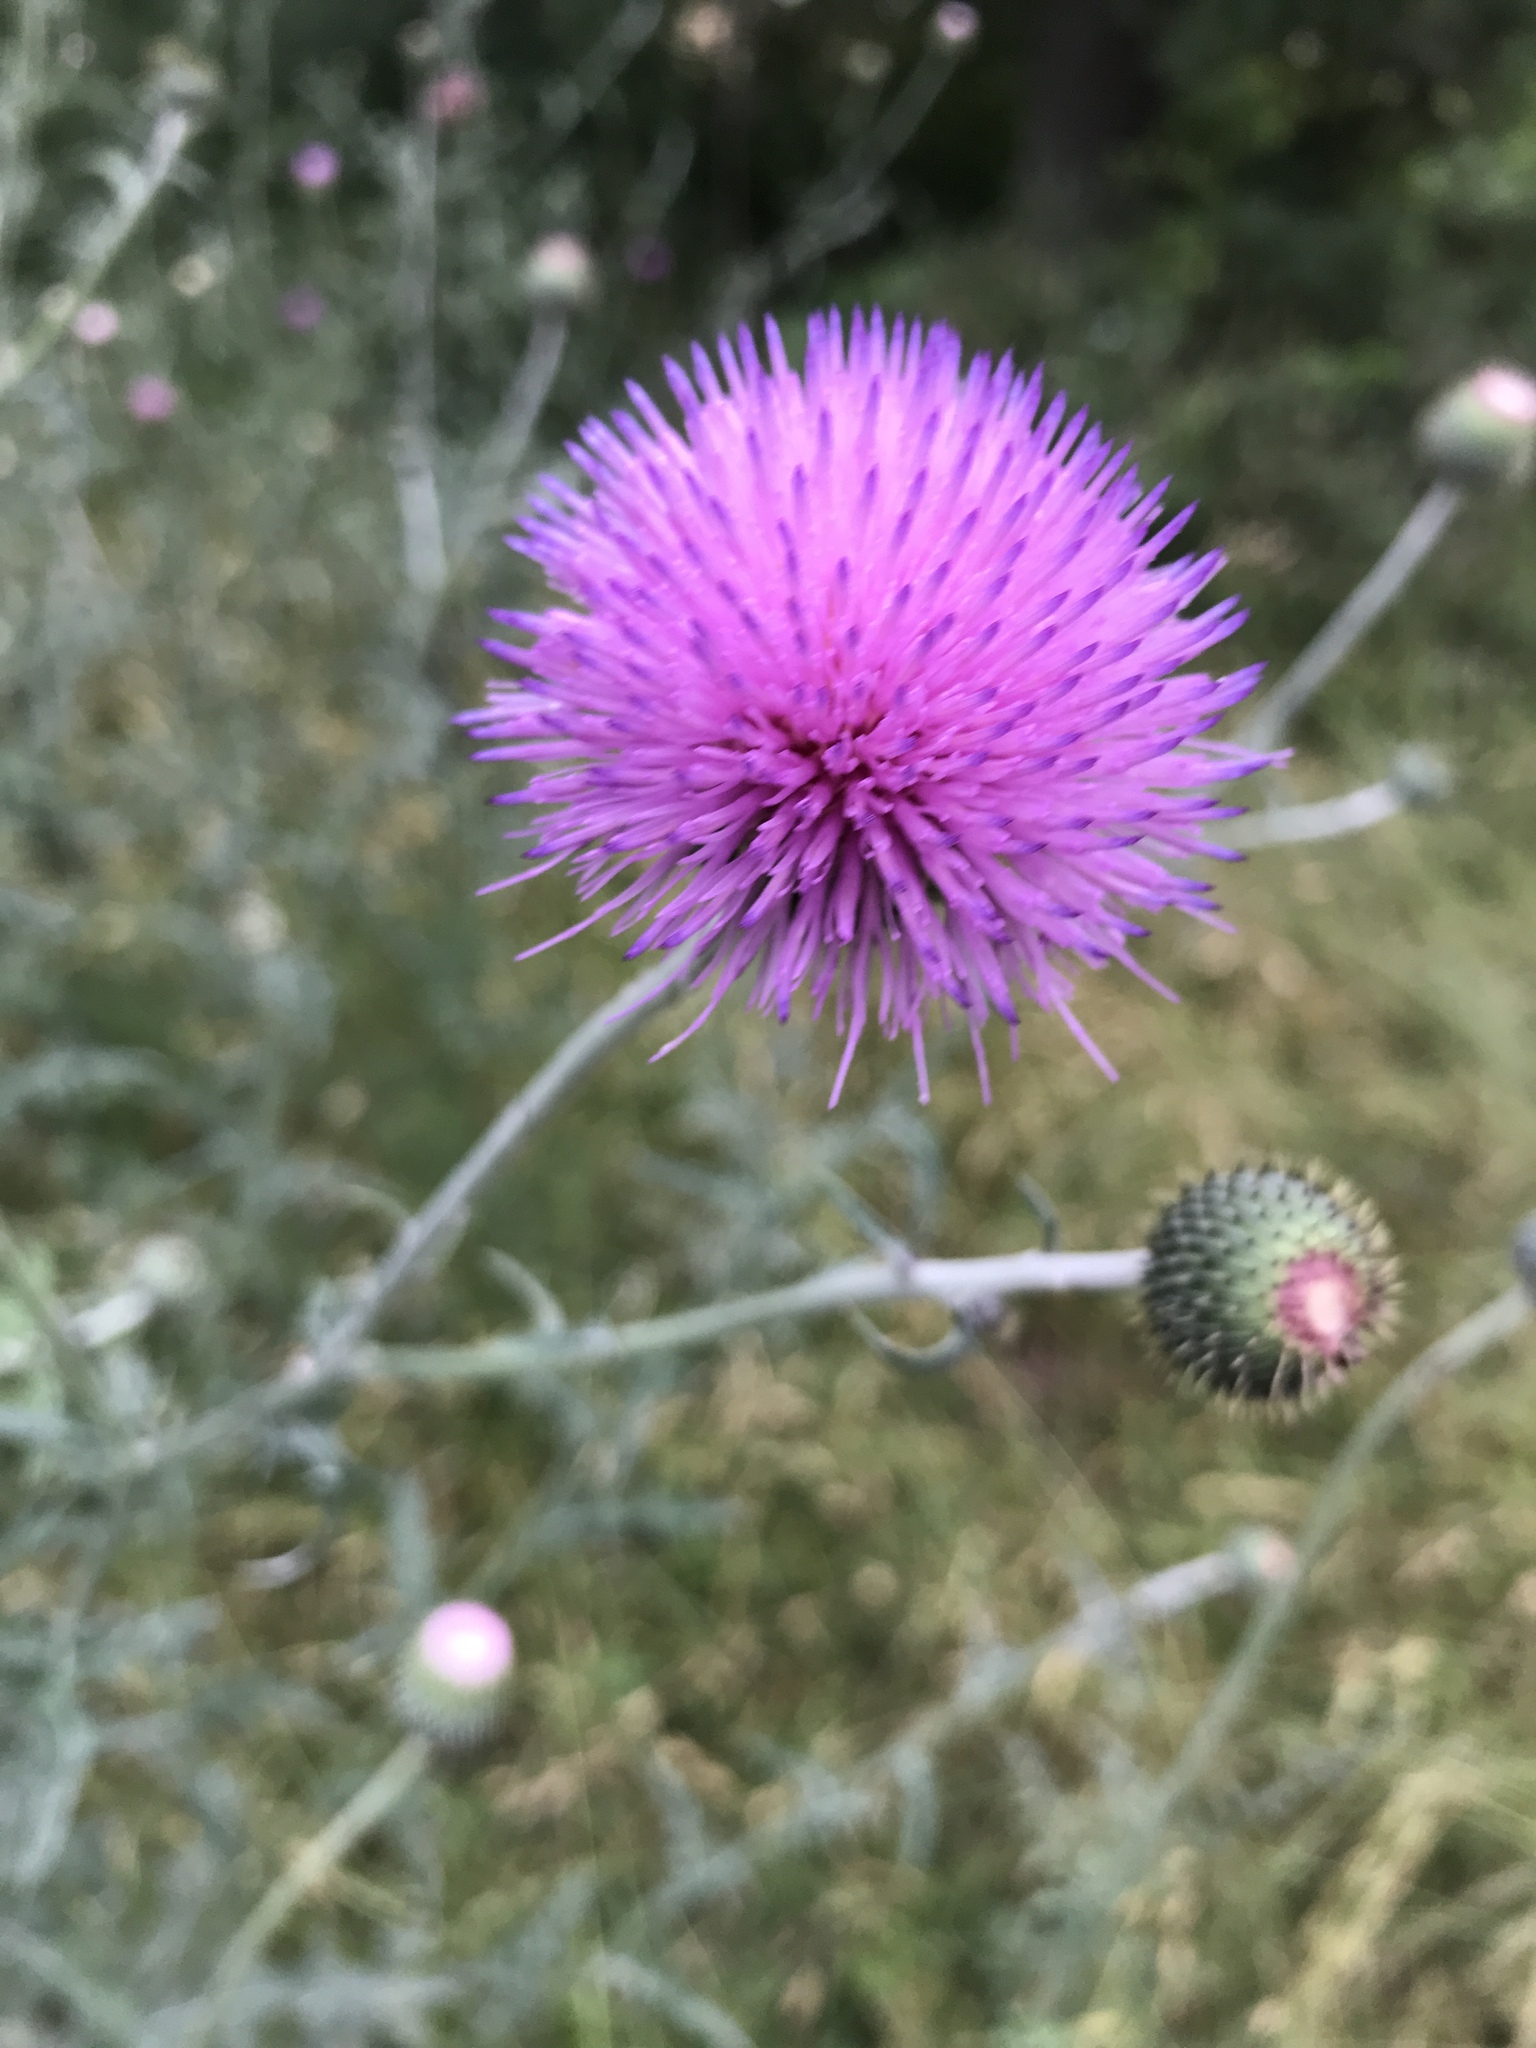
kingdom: Plantae
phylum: Tracheophyta
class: Magnoliopsida
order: Asterales
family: Asteraceae
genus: Cirsium
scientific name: Cirsium texanum
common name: Texas purple thistle
